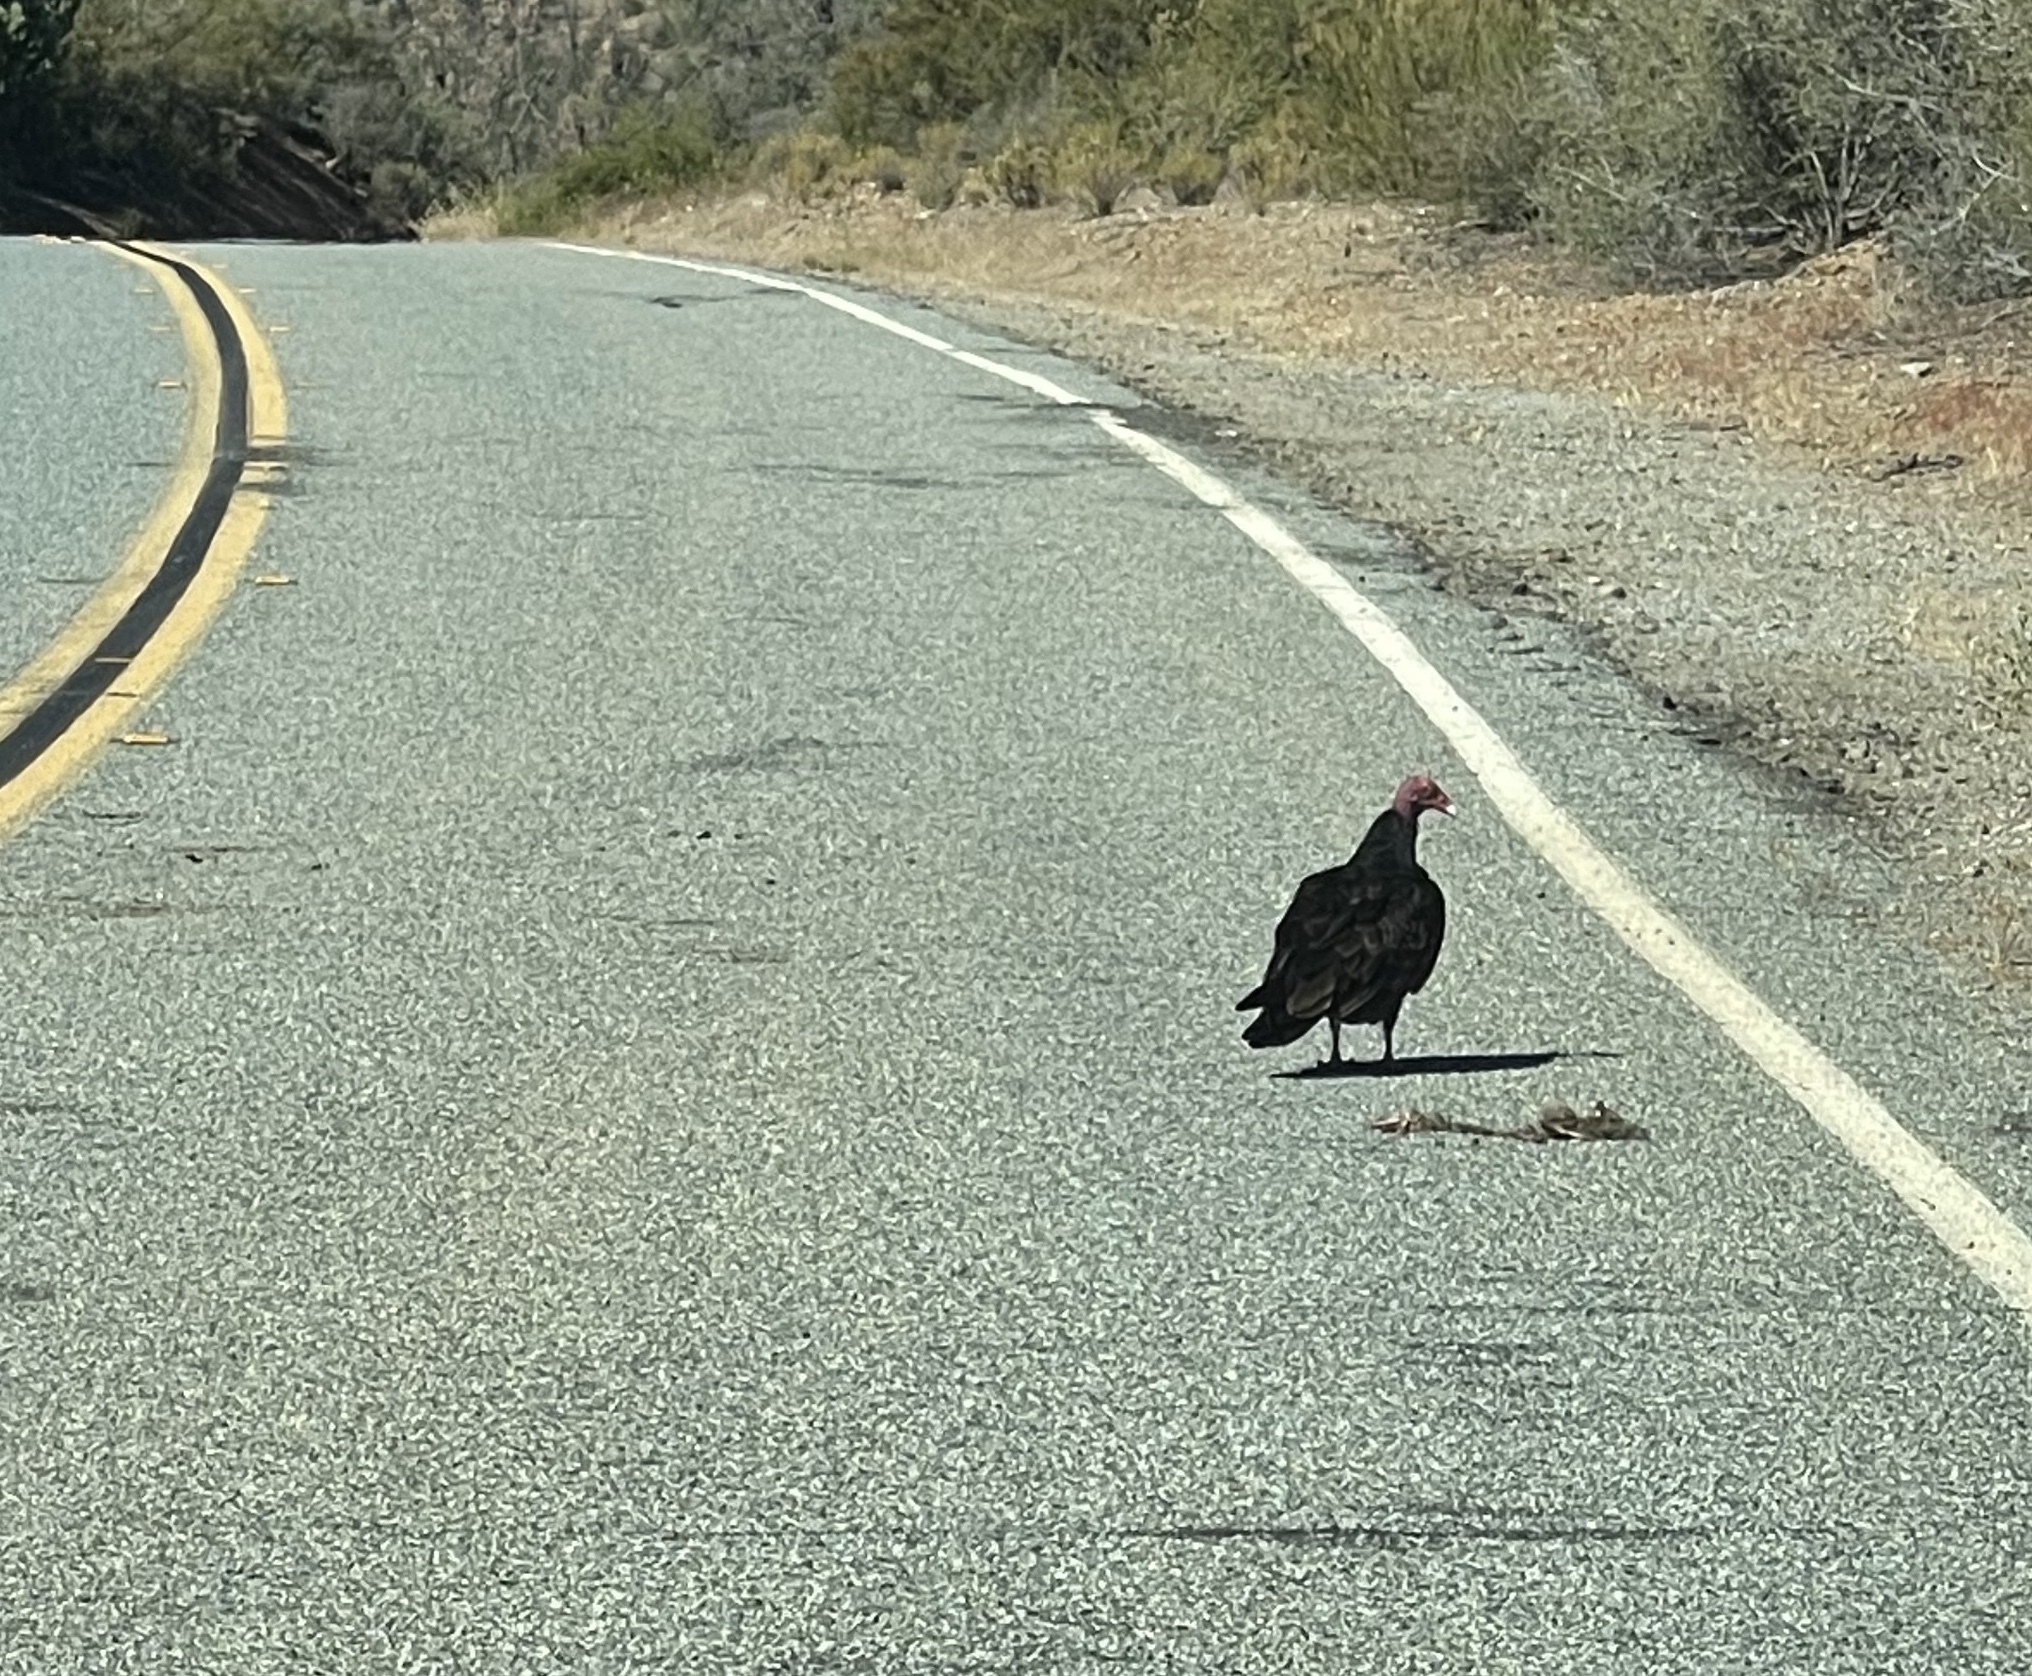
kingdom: Animalia
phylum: Chordata
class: Aves
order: Accipitriformes
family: Cathartidae
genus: Cathartes
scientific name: Cathartes aura
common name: Turkey vulture
